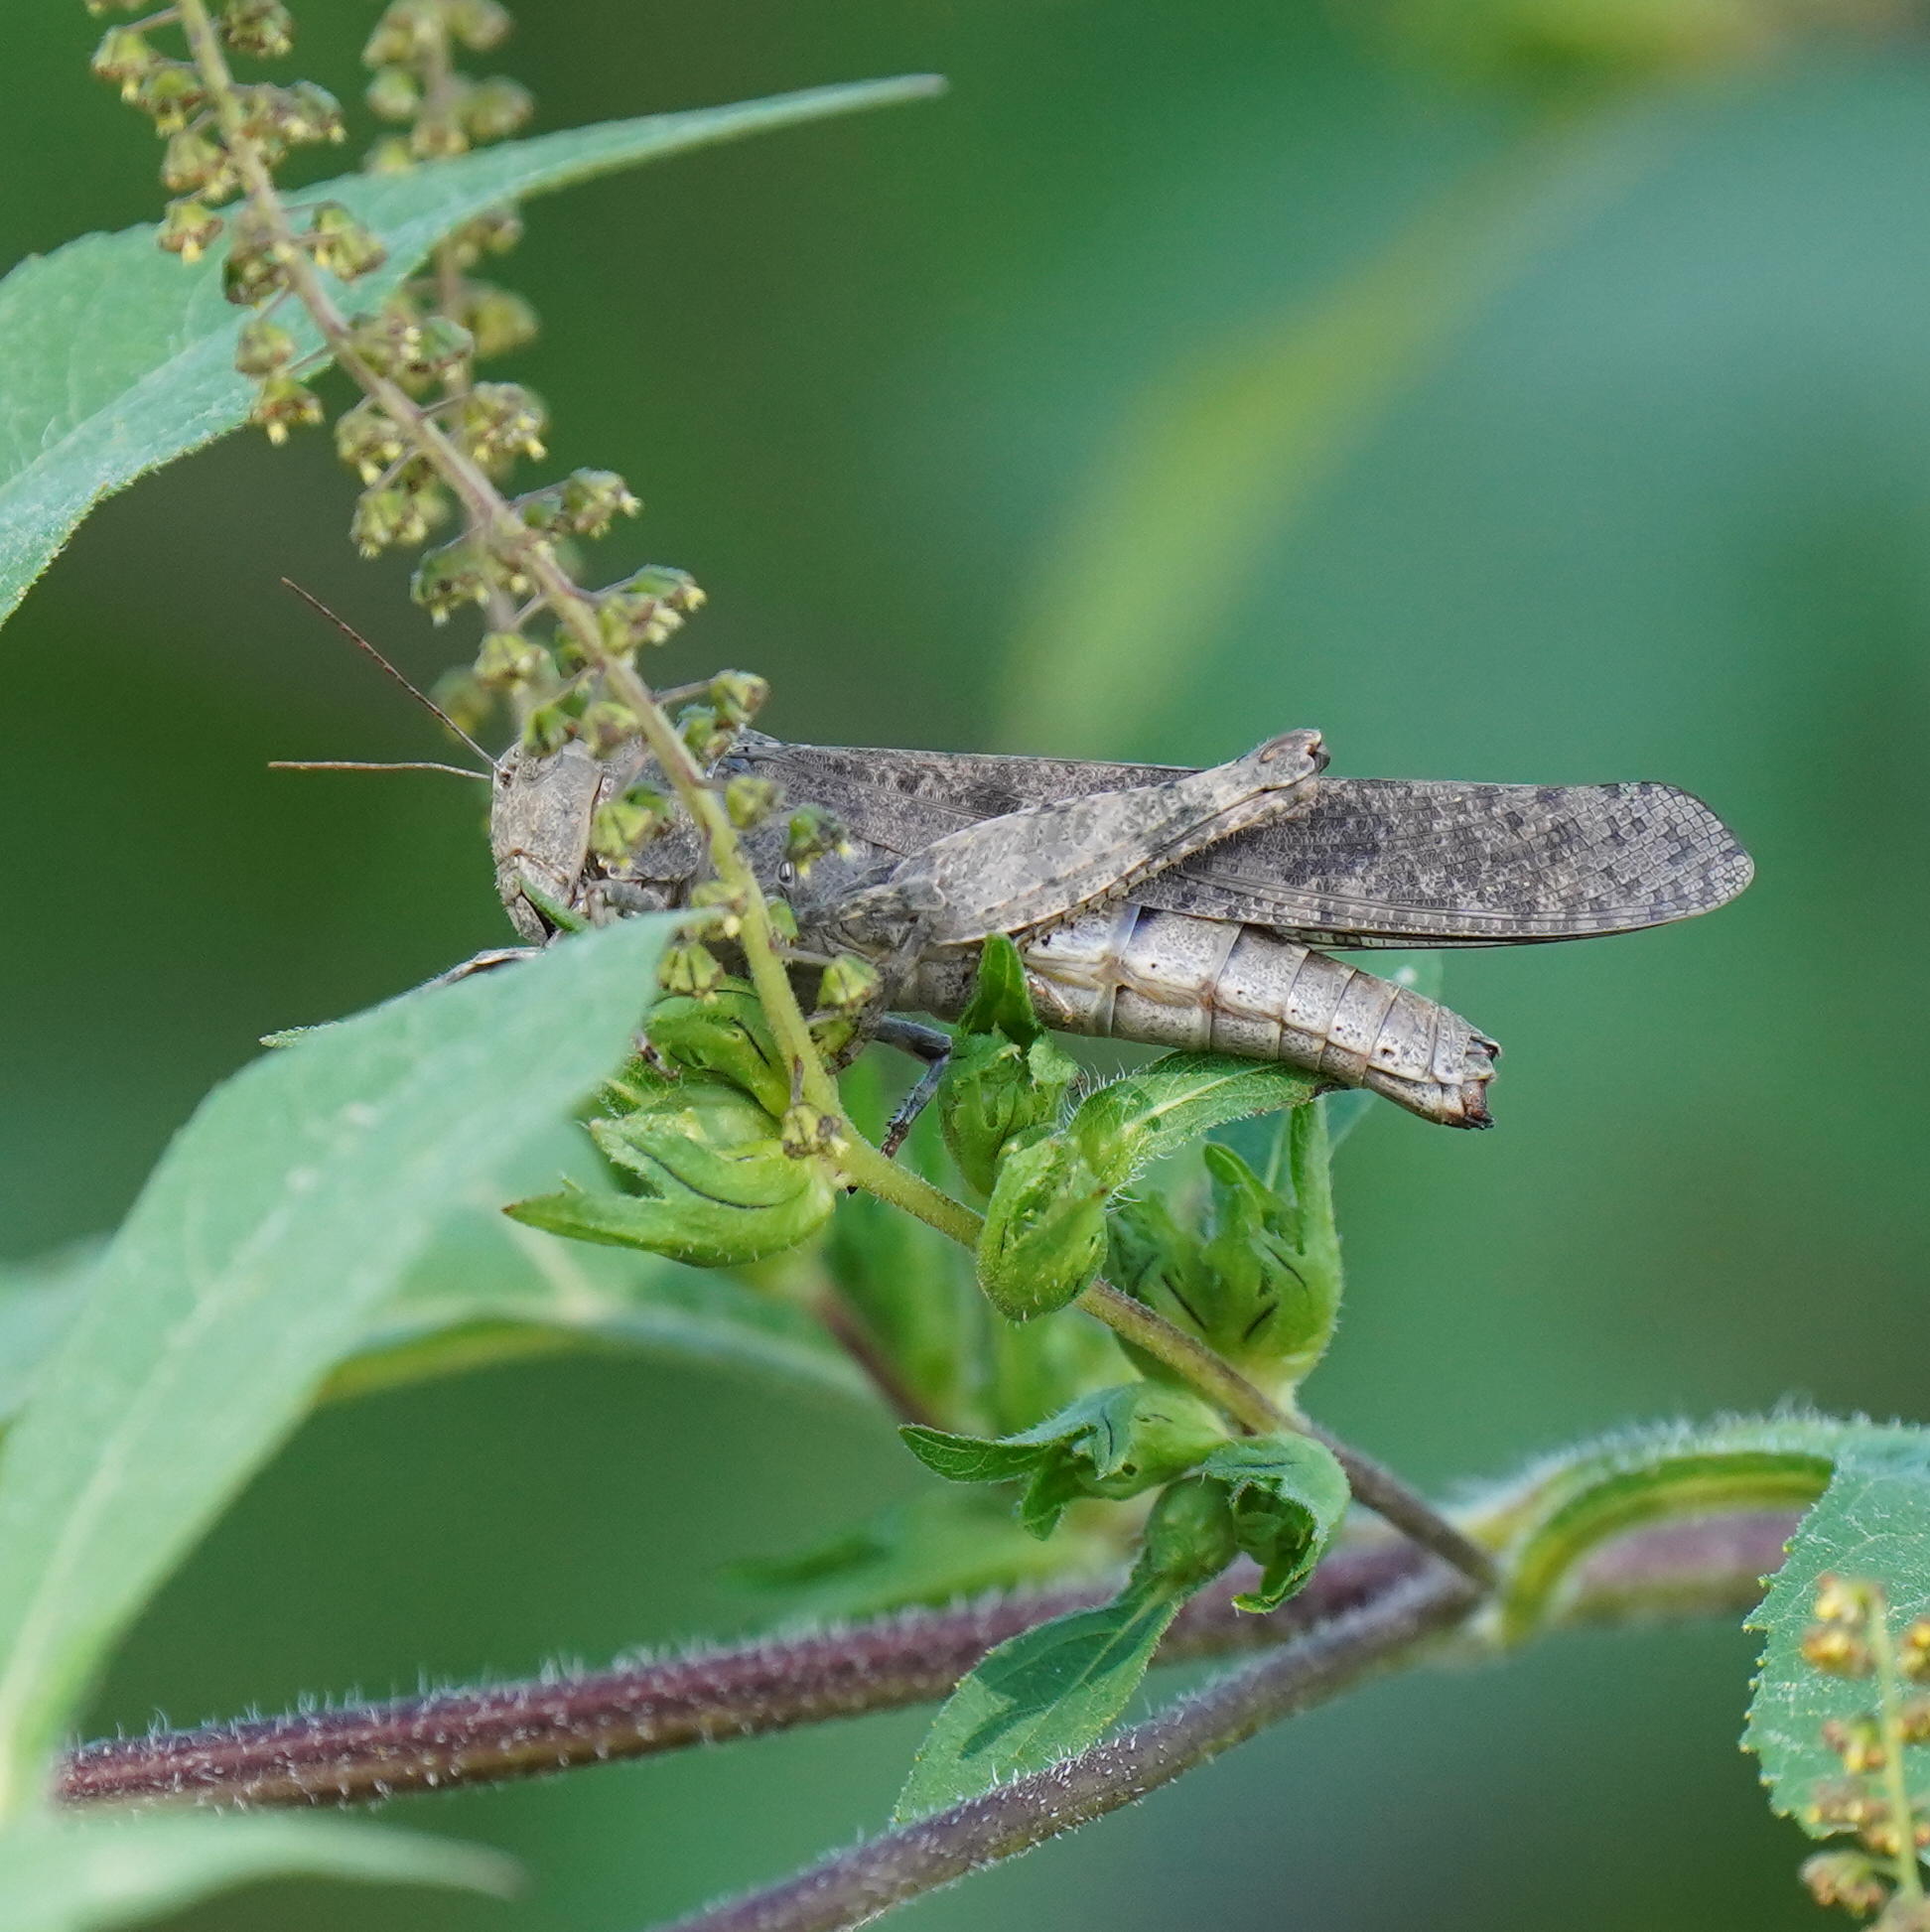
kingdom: Animalia
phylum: Arthropoda
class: Insecta
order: Orthoptera
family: Acrididae
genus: Dissosteira
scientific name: Dissosteira carolina
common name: Carolina grasshopper
